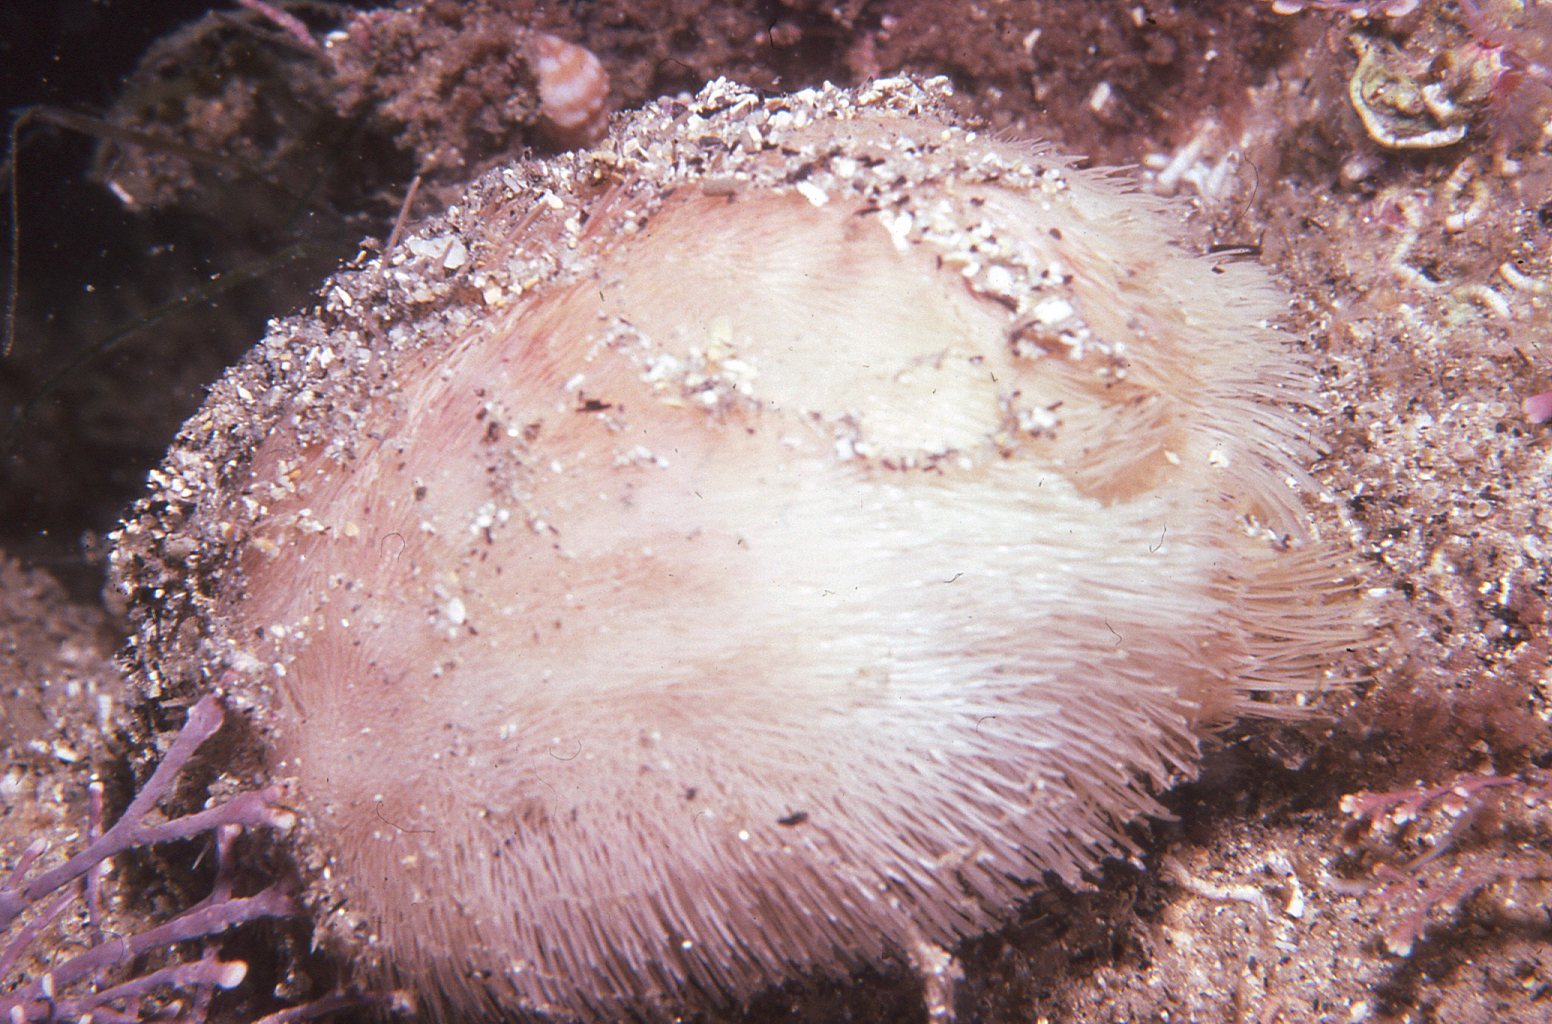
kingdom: Animalia
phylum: Echinodermata
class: Echinoidea
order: Spatangoida
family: Loveniidae
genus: Echinocardium
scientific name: Echinocardium cordatum
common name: Heart-urchin
